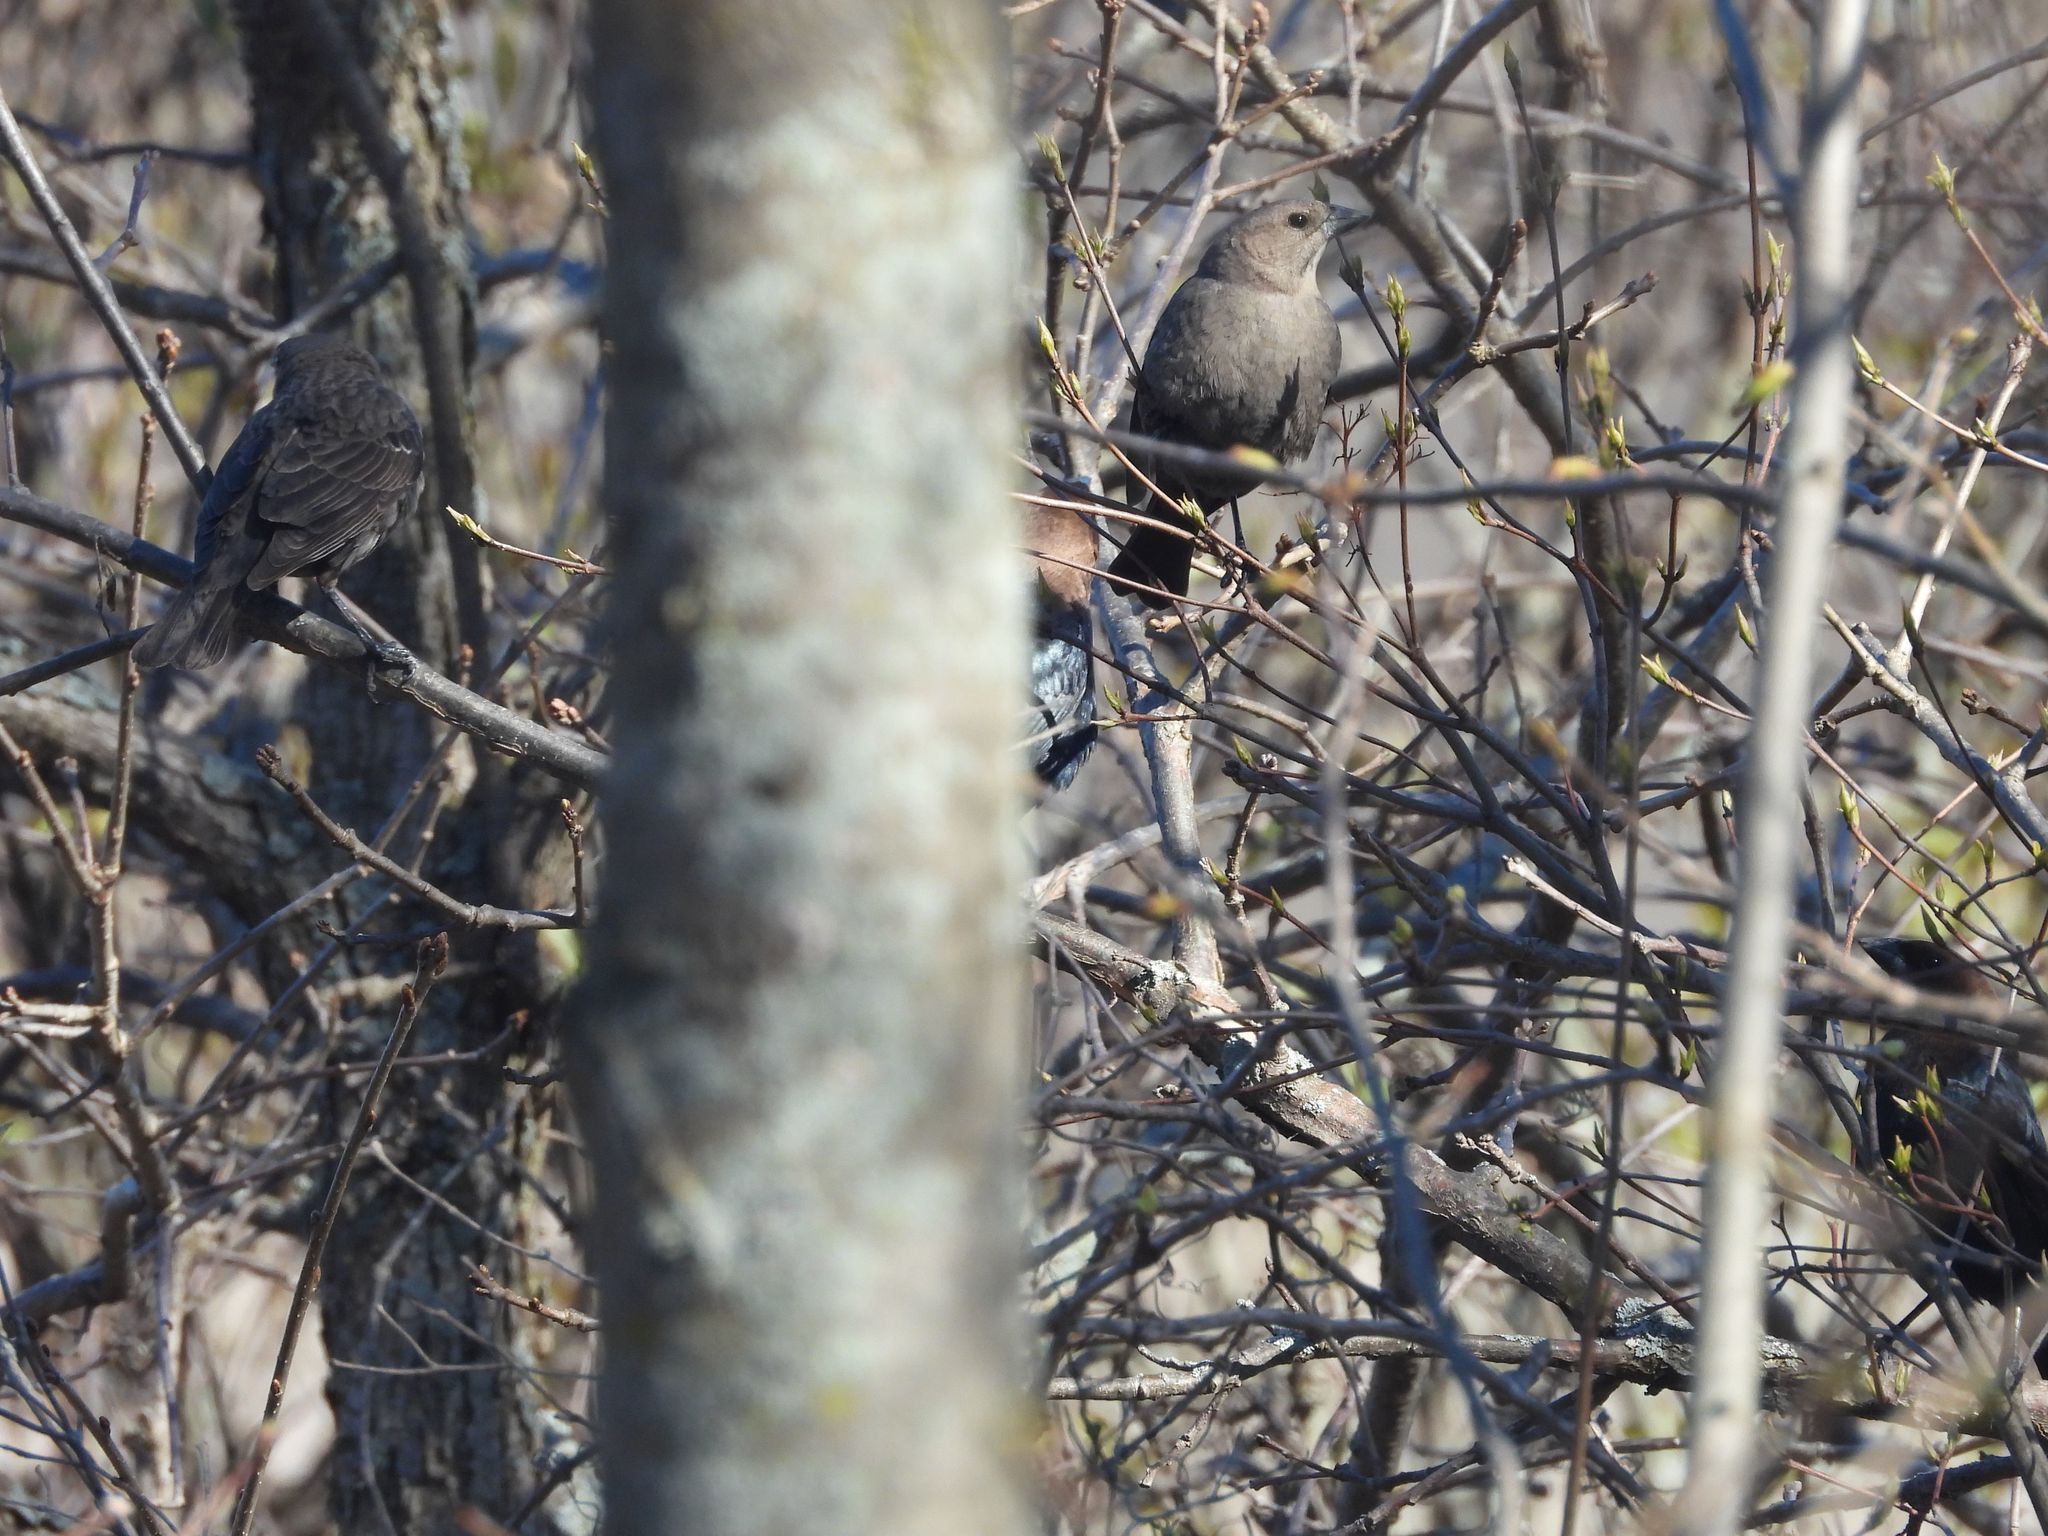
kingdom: Animalia
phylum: Chordata
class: Aves
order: Passeriformes
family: Icteridae
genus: Molothrus
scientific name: Molothrus ater
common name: Brown-headed cowbird
